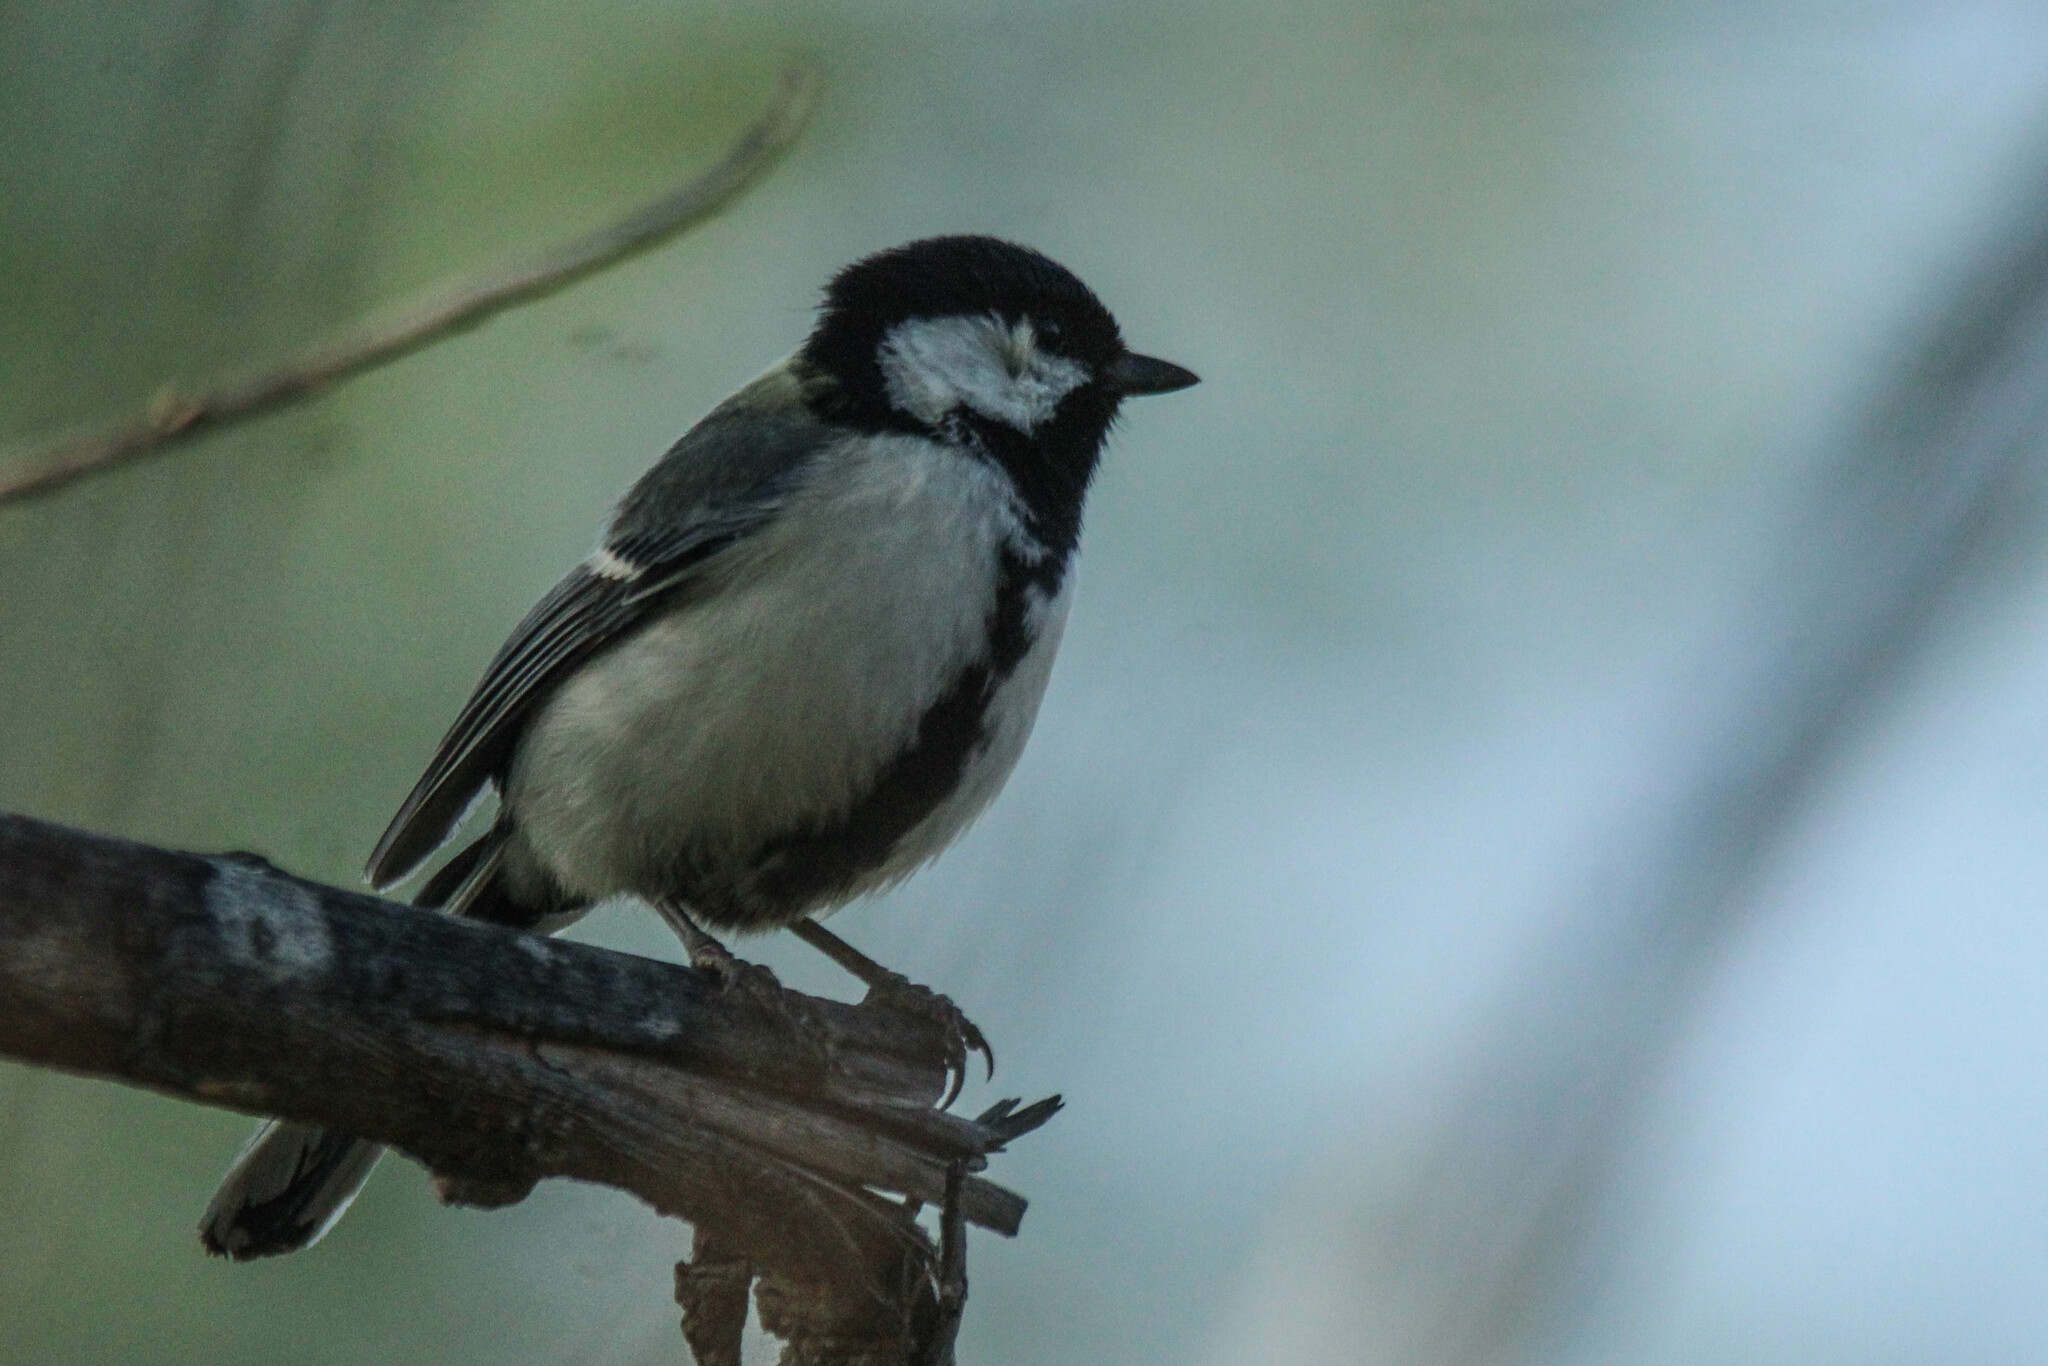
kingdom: Animalia
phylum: Chordata
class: Aves
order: Passeriformes
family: Paridae
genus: Parus
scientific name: Parus minor
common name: Japanese tit
